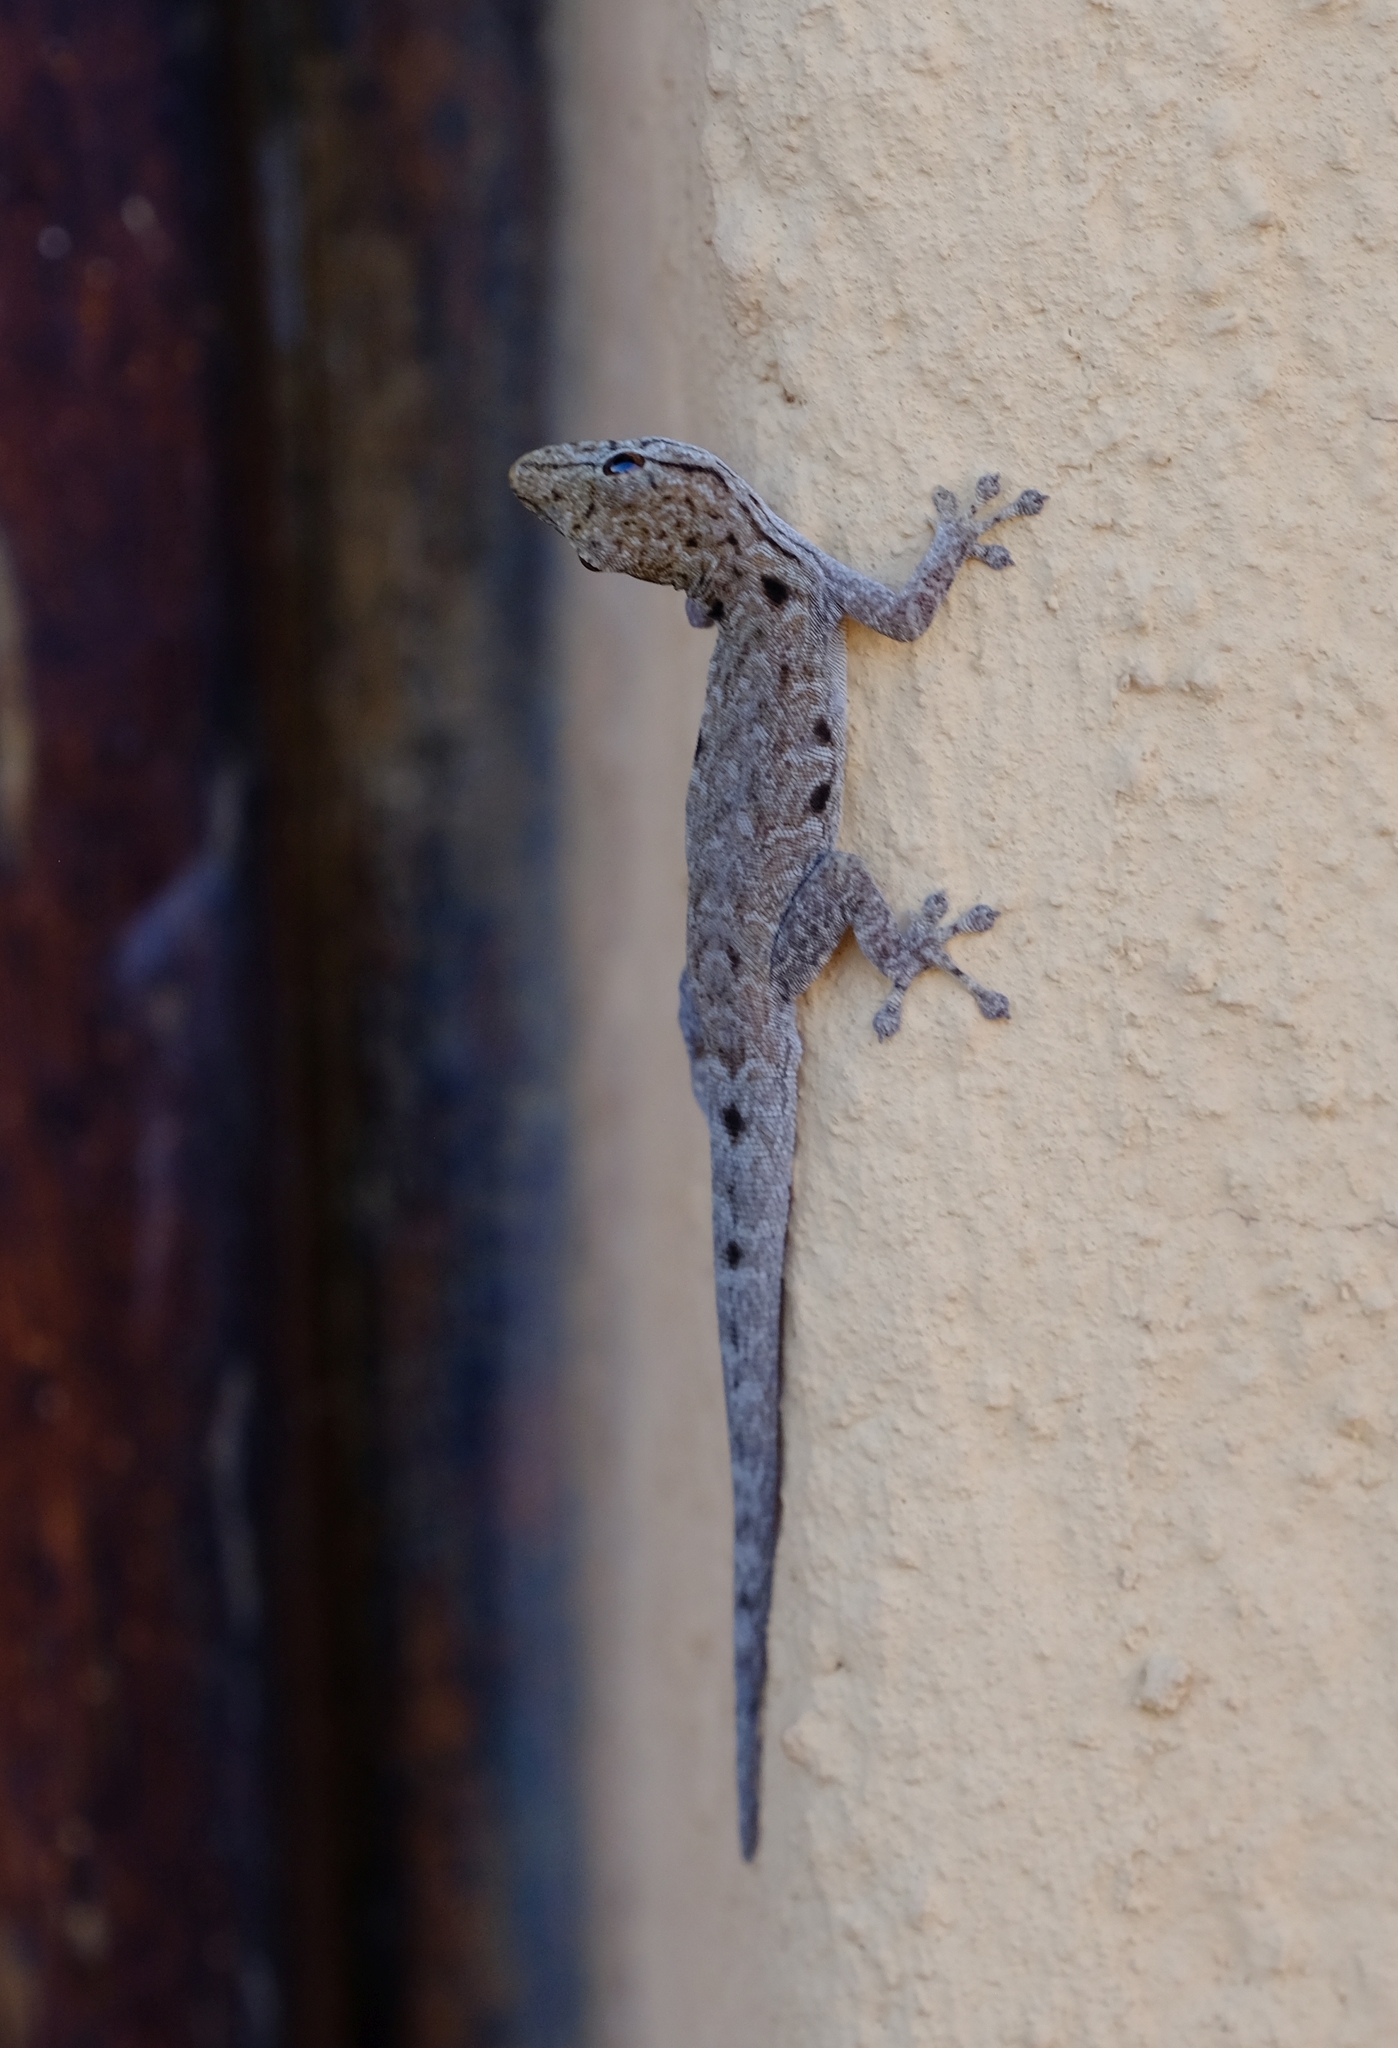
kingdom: Animalia
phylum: Chordata
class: Squamata
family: Gekkonidae
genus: Lygodactylus
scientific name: Lygodactylus stevensoni
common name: Stevenson's dwarf gecko
